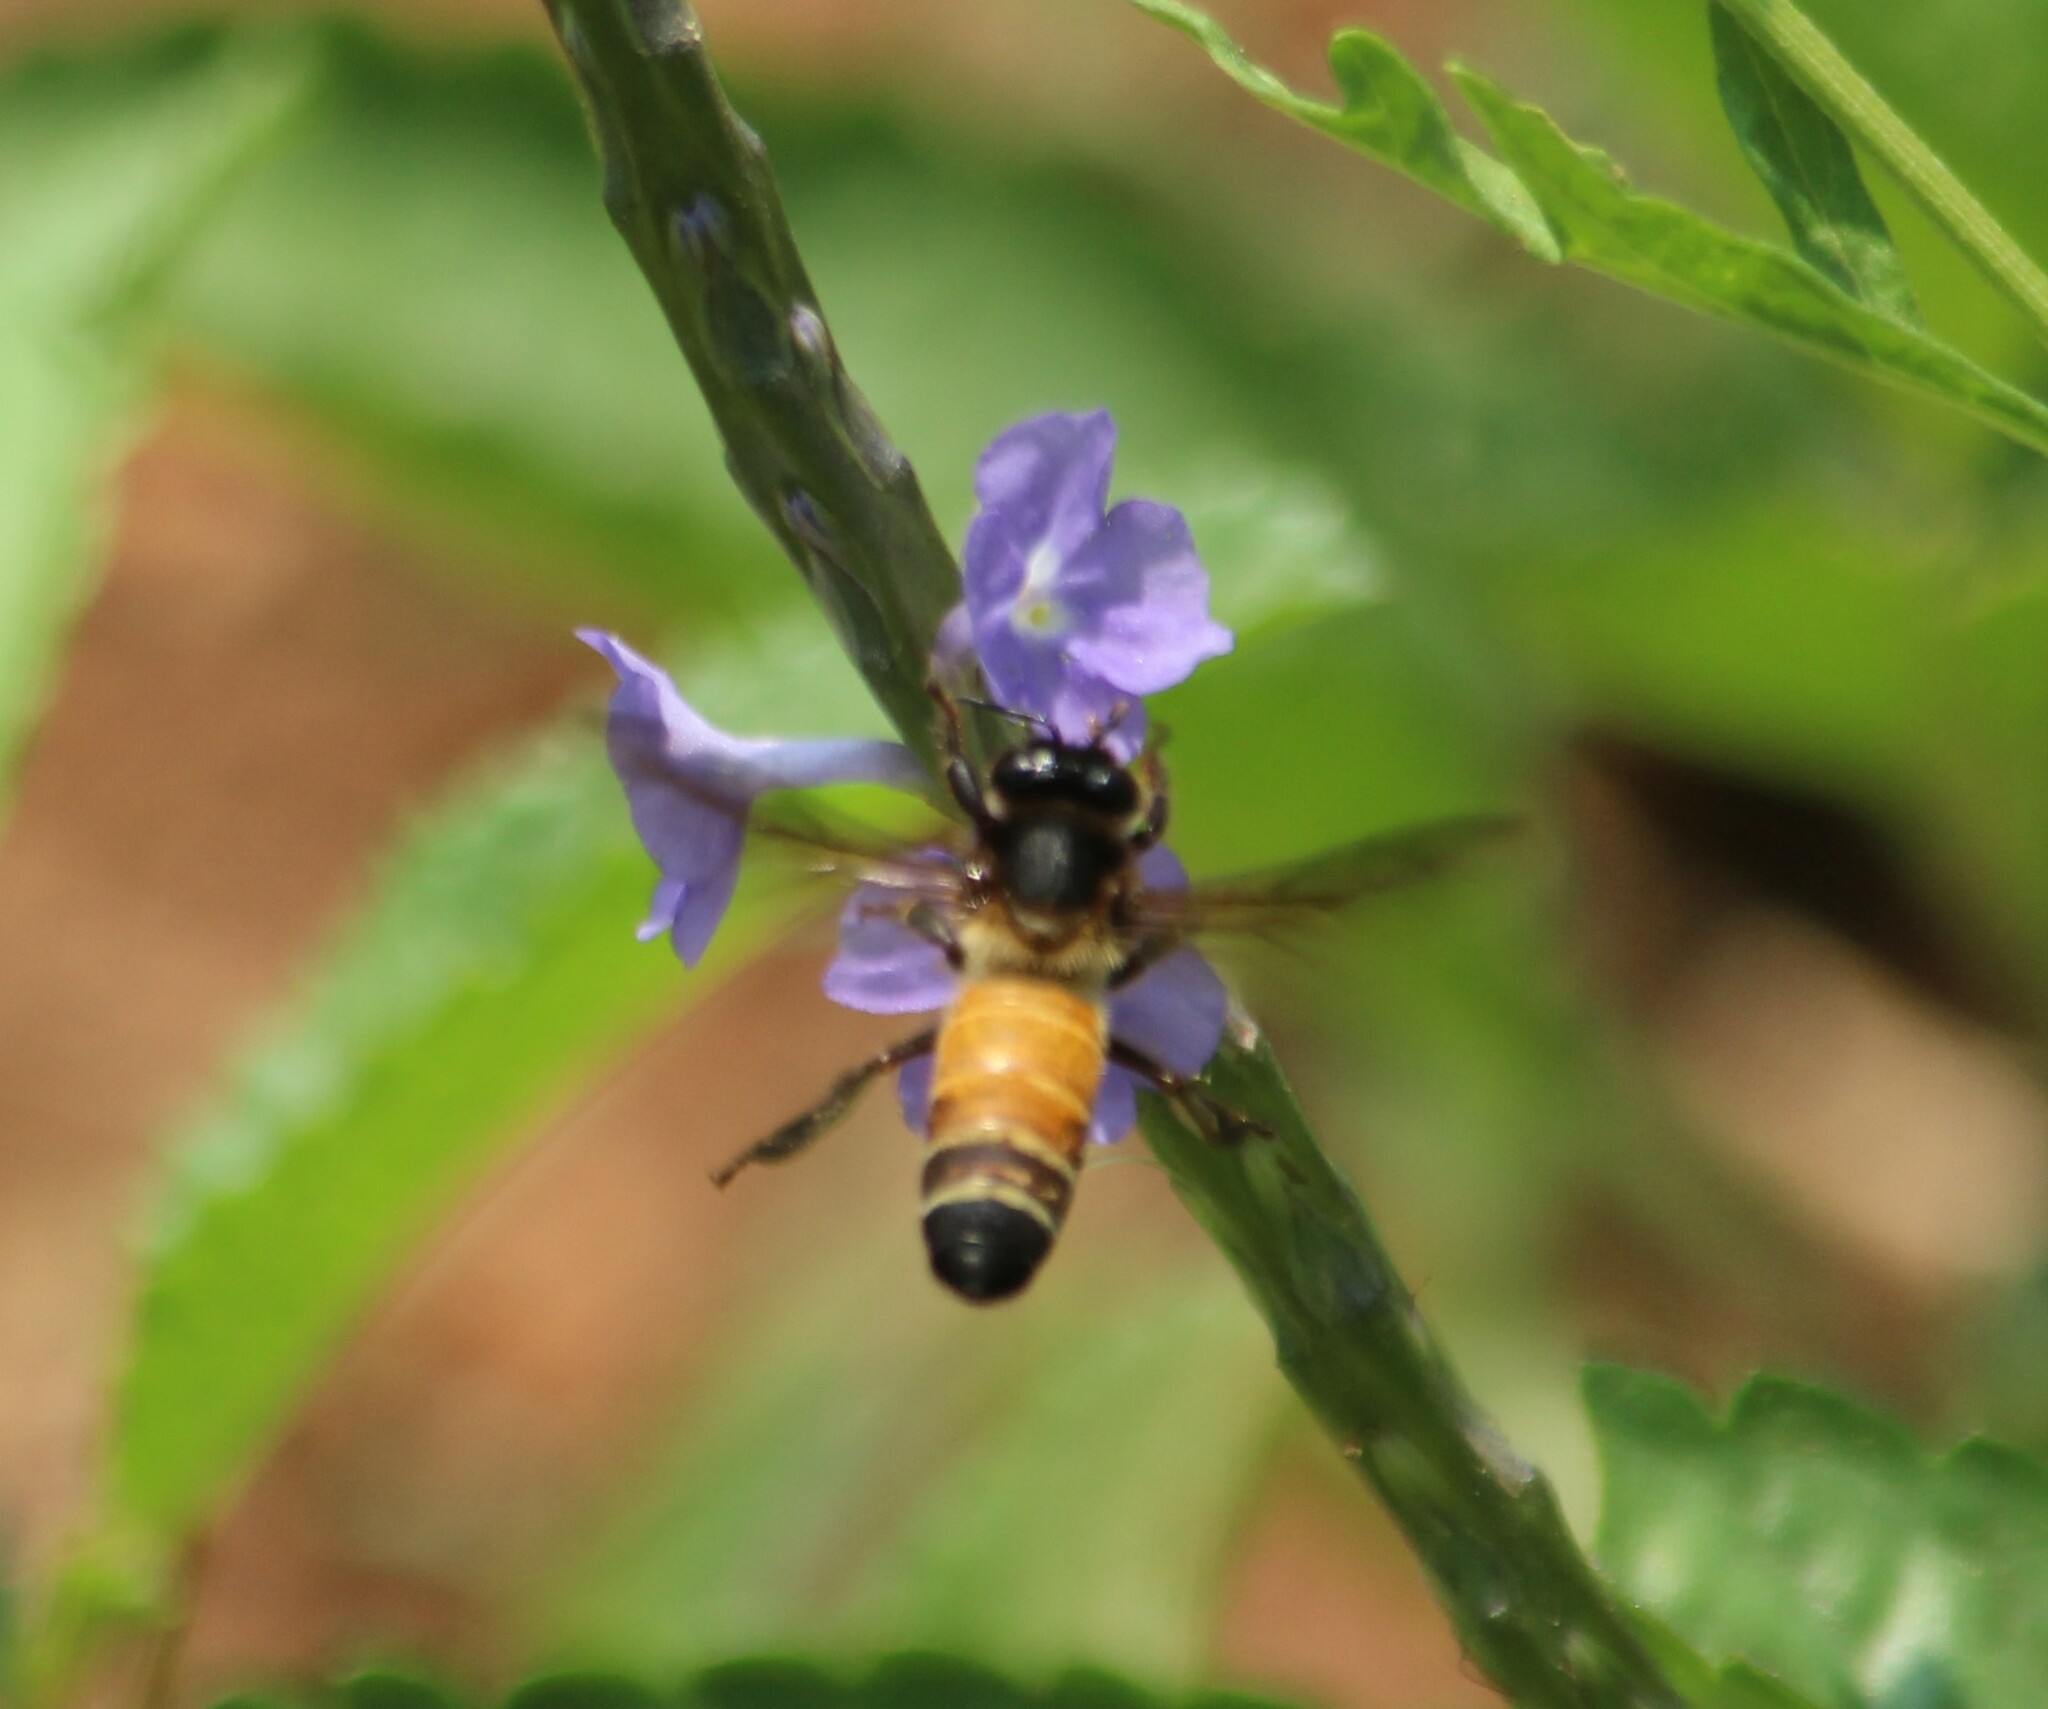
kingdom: Animalia
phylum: Arthropoda
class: Insecta
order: Hymenoptera
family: Apidae
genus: Apis
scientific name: Apis dorsata
